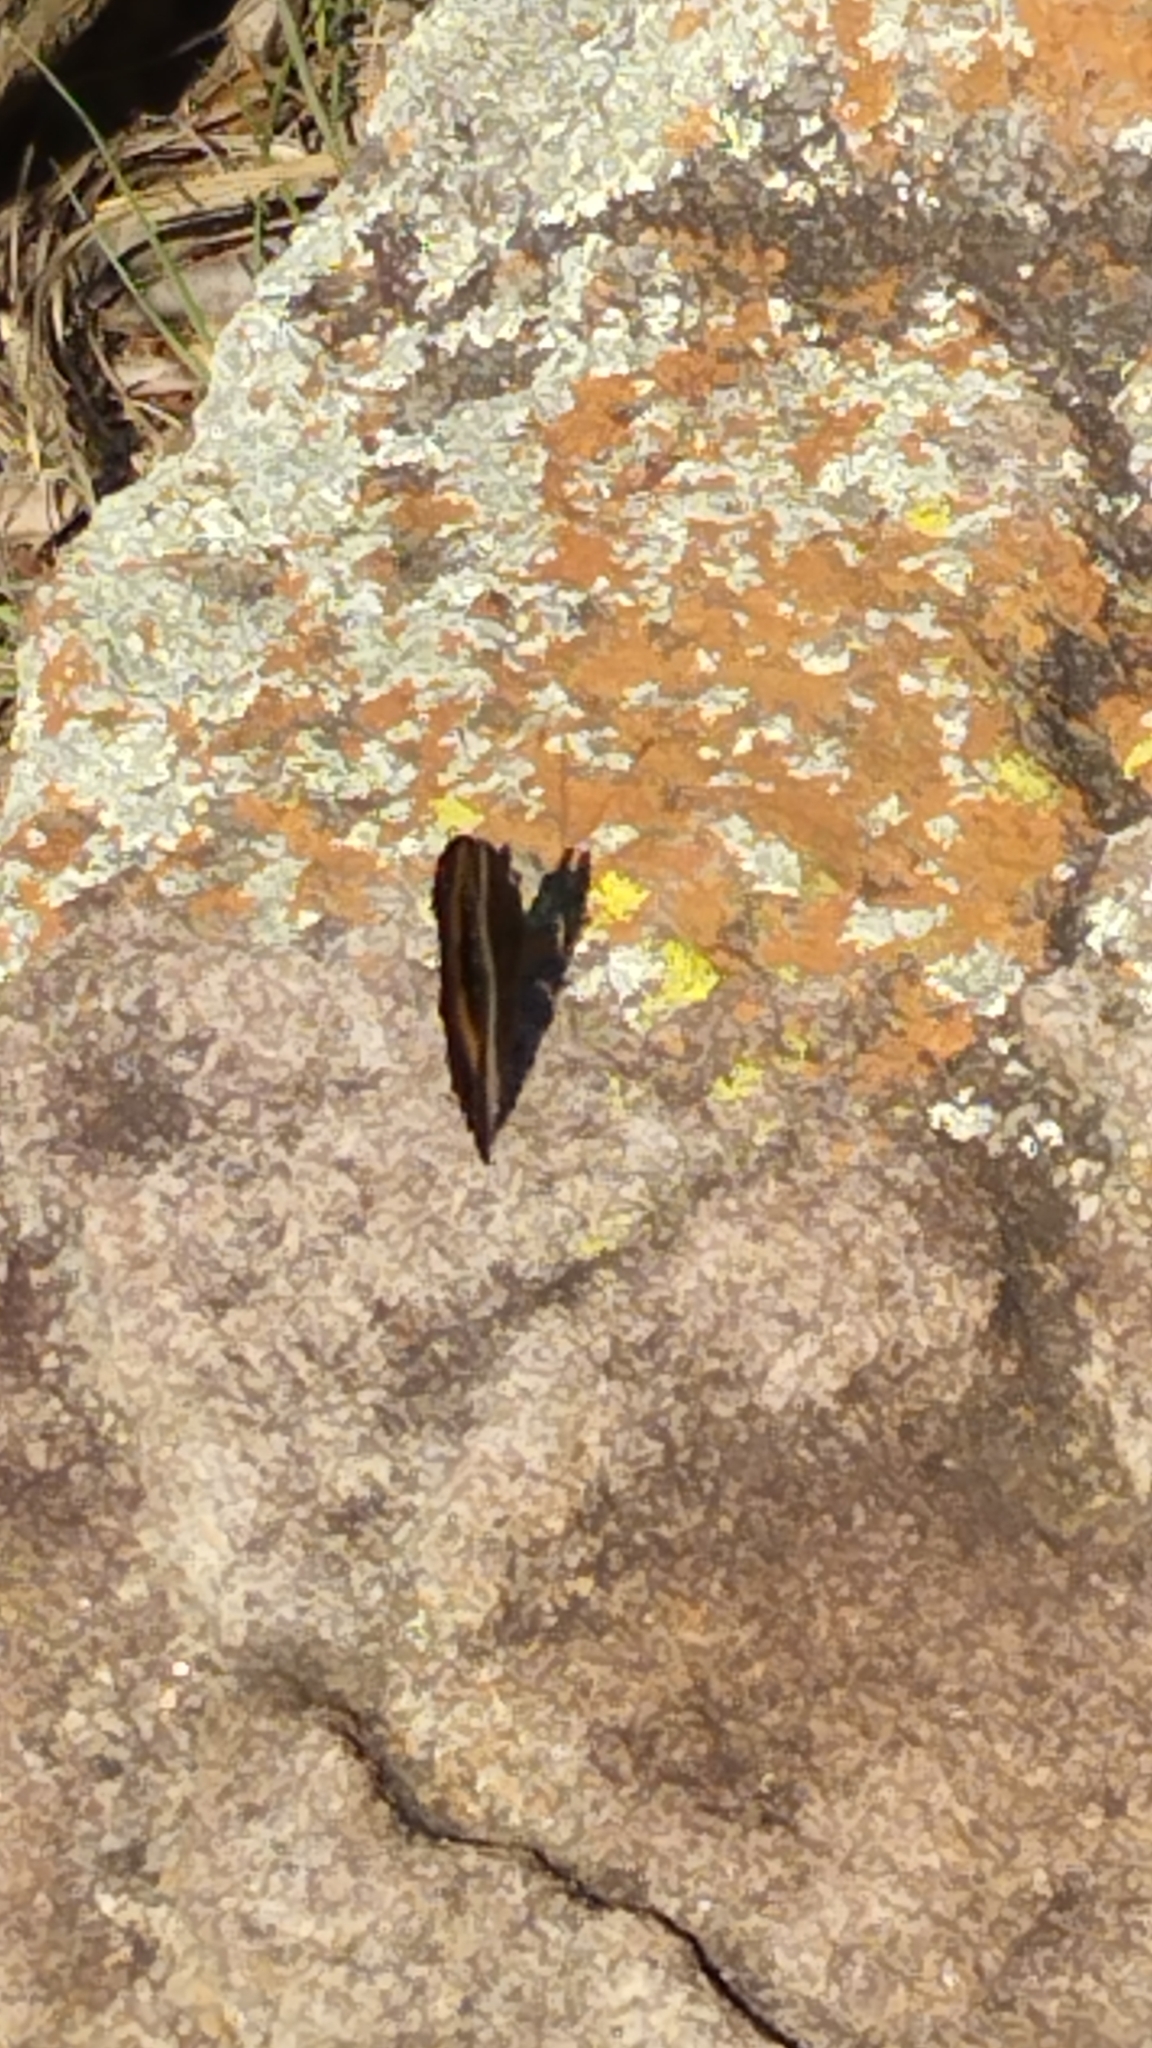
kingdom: Animalia
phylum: Arthropoda
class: Insecta
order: Lepidoptera
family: Nymphalidae
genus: Junonia
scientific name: Junonia archesia
